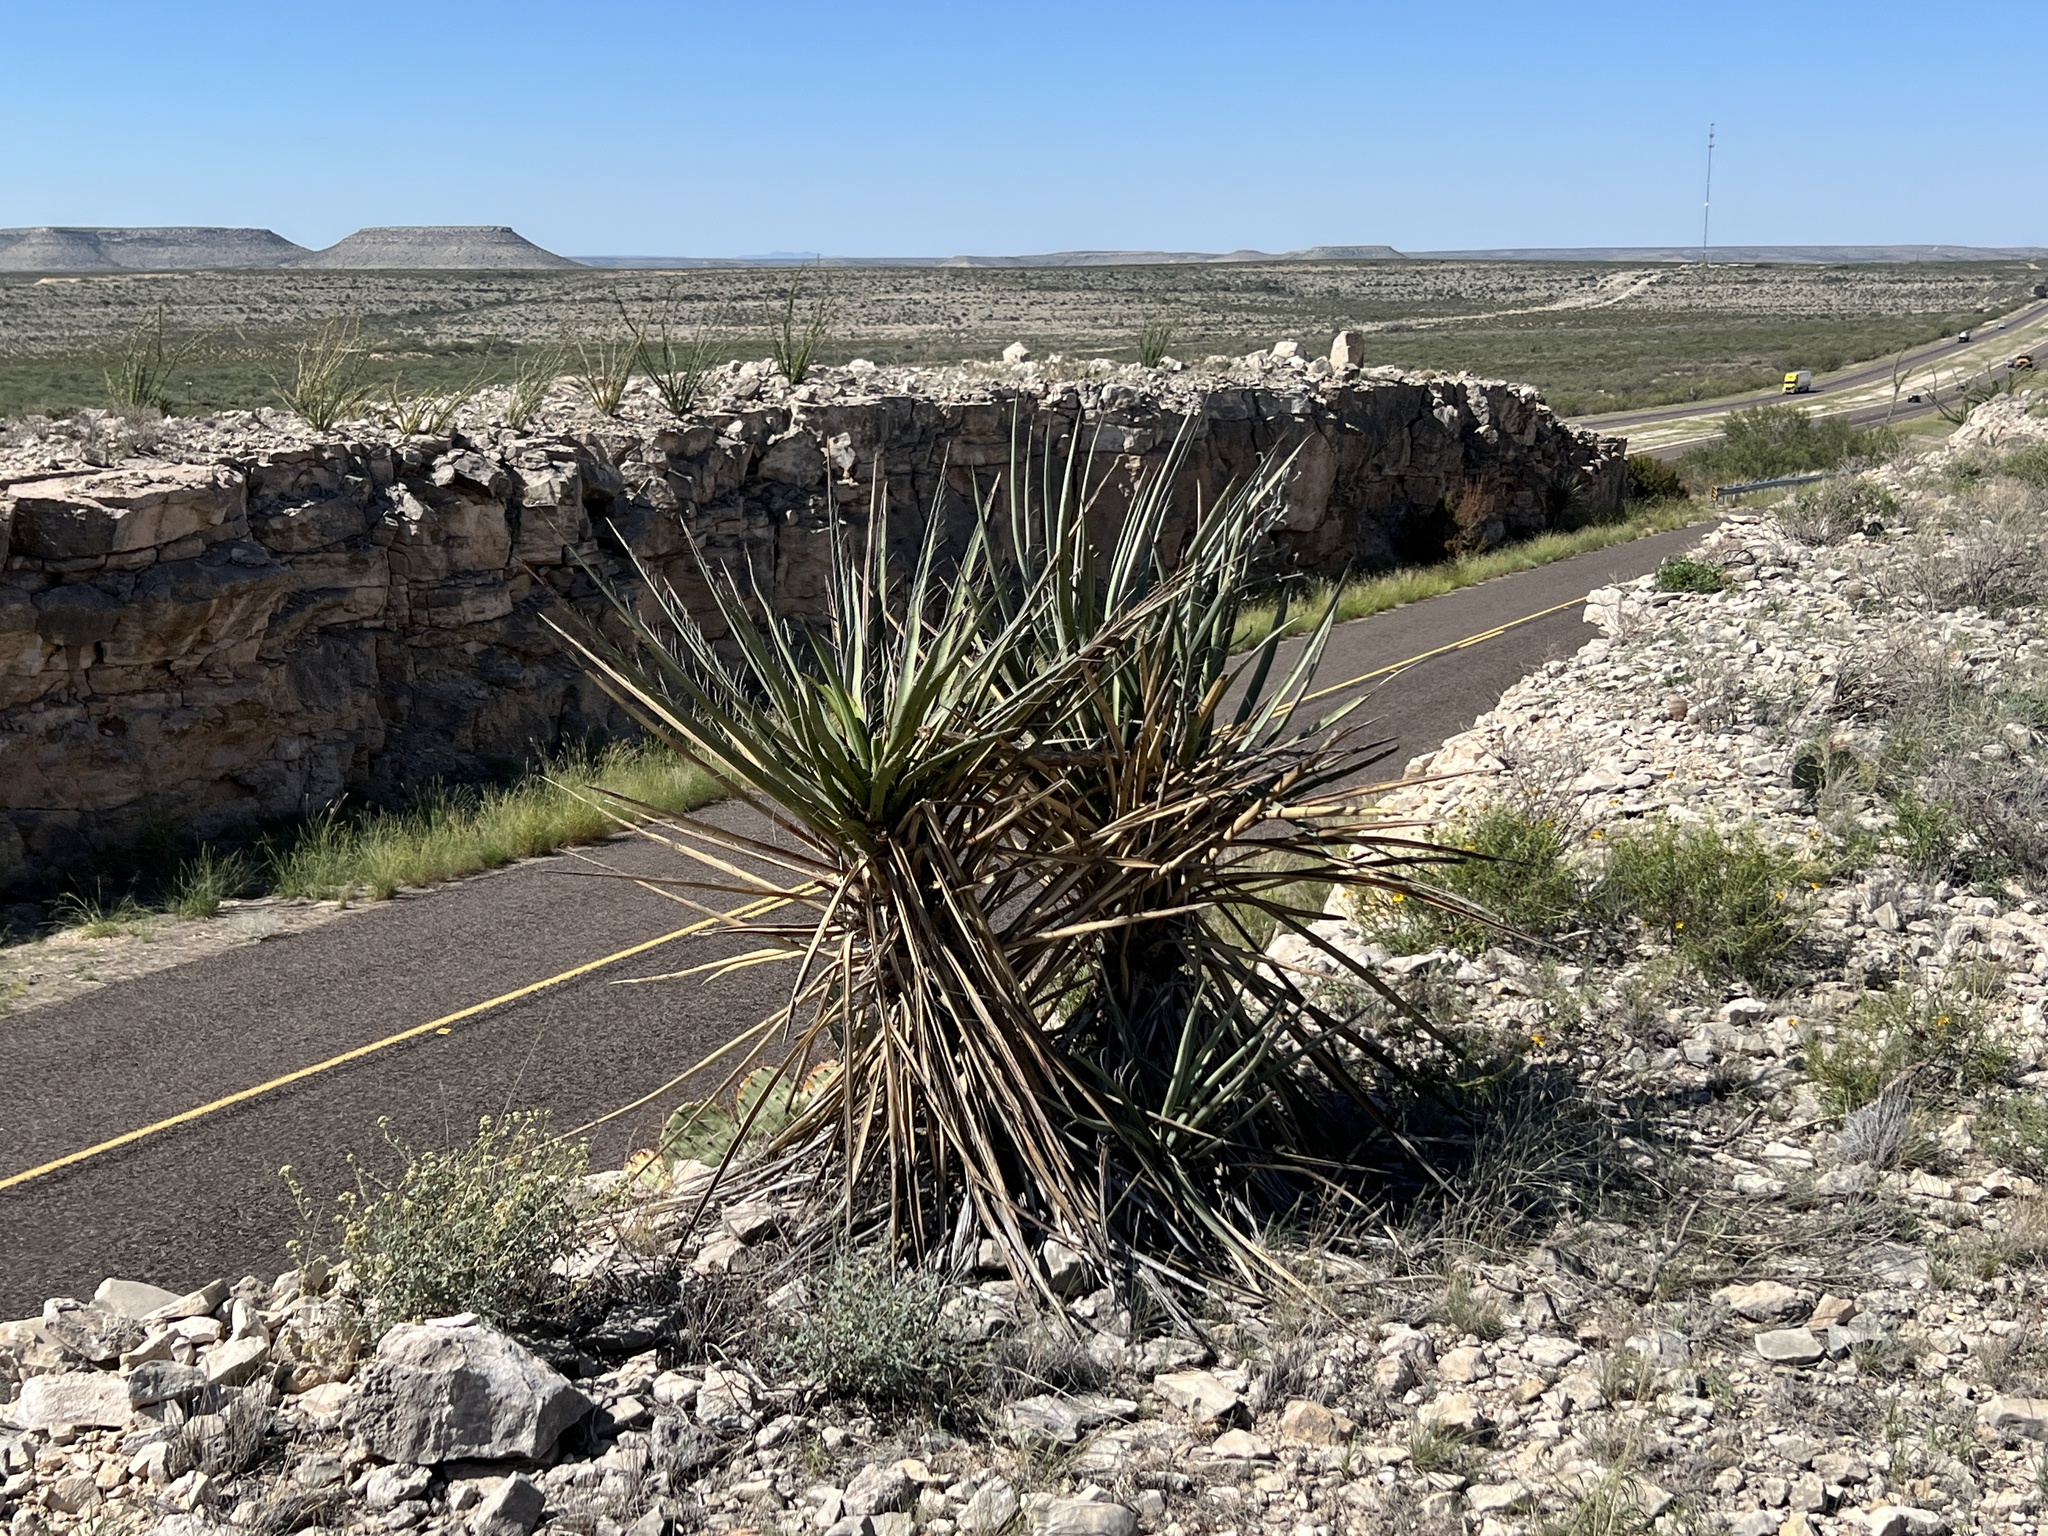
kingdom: Plantae
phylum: Tracheophyta
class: Liliopsida
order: Asparagales
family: Asparagaceae
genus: Yucca
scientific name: Yucca treculiana
